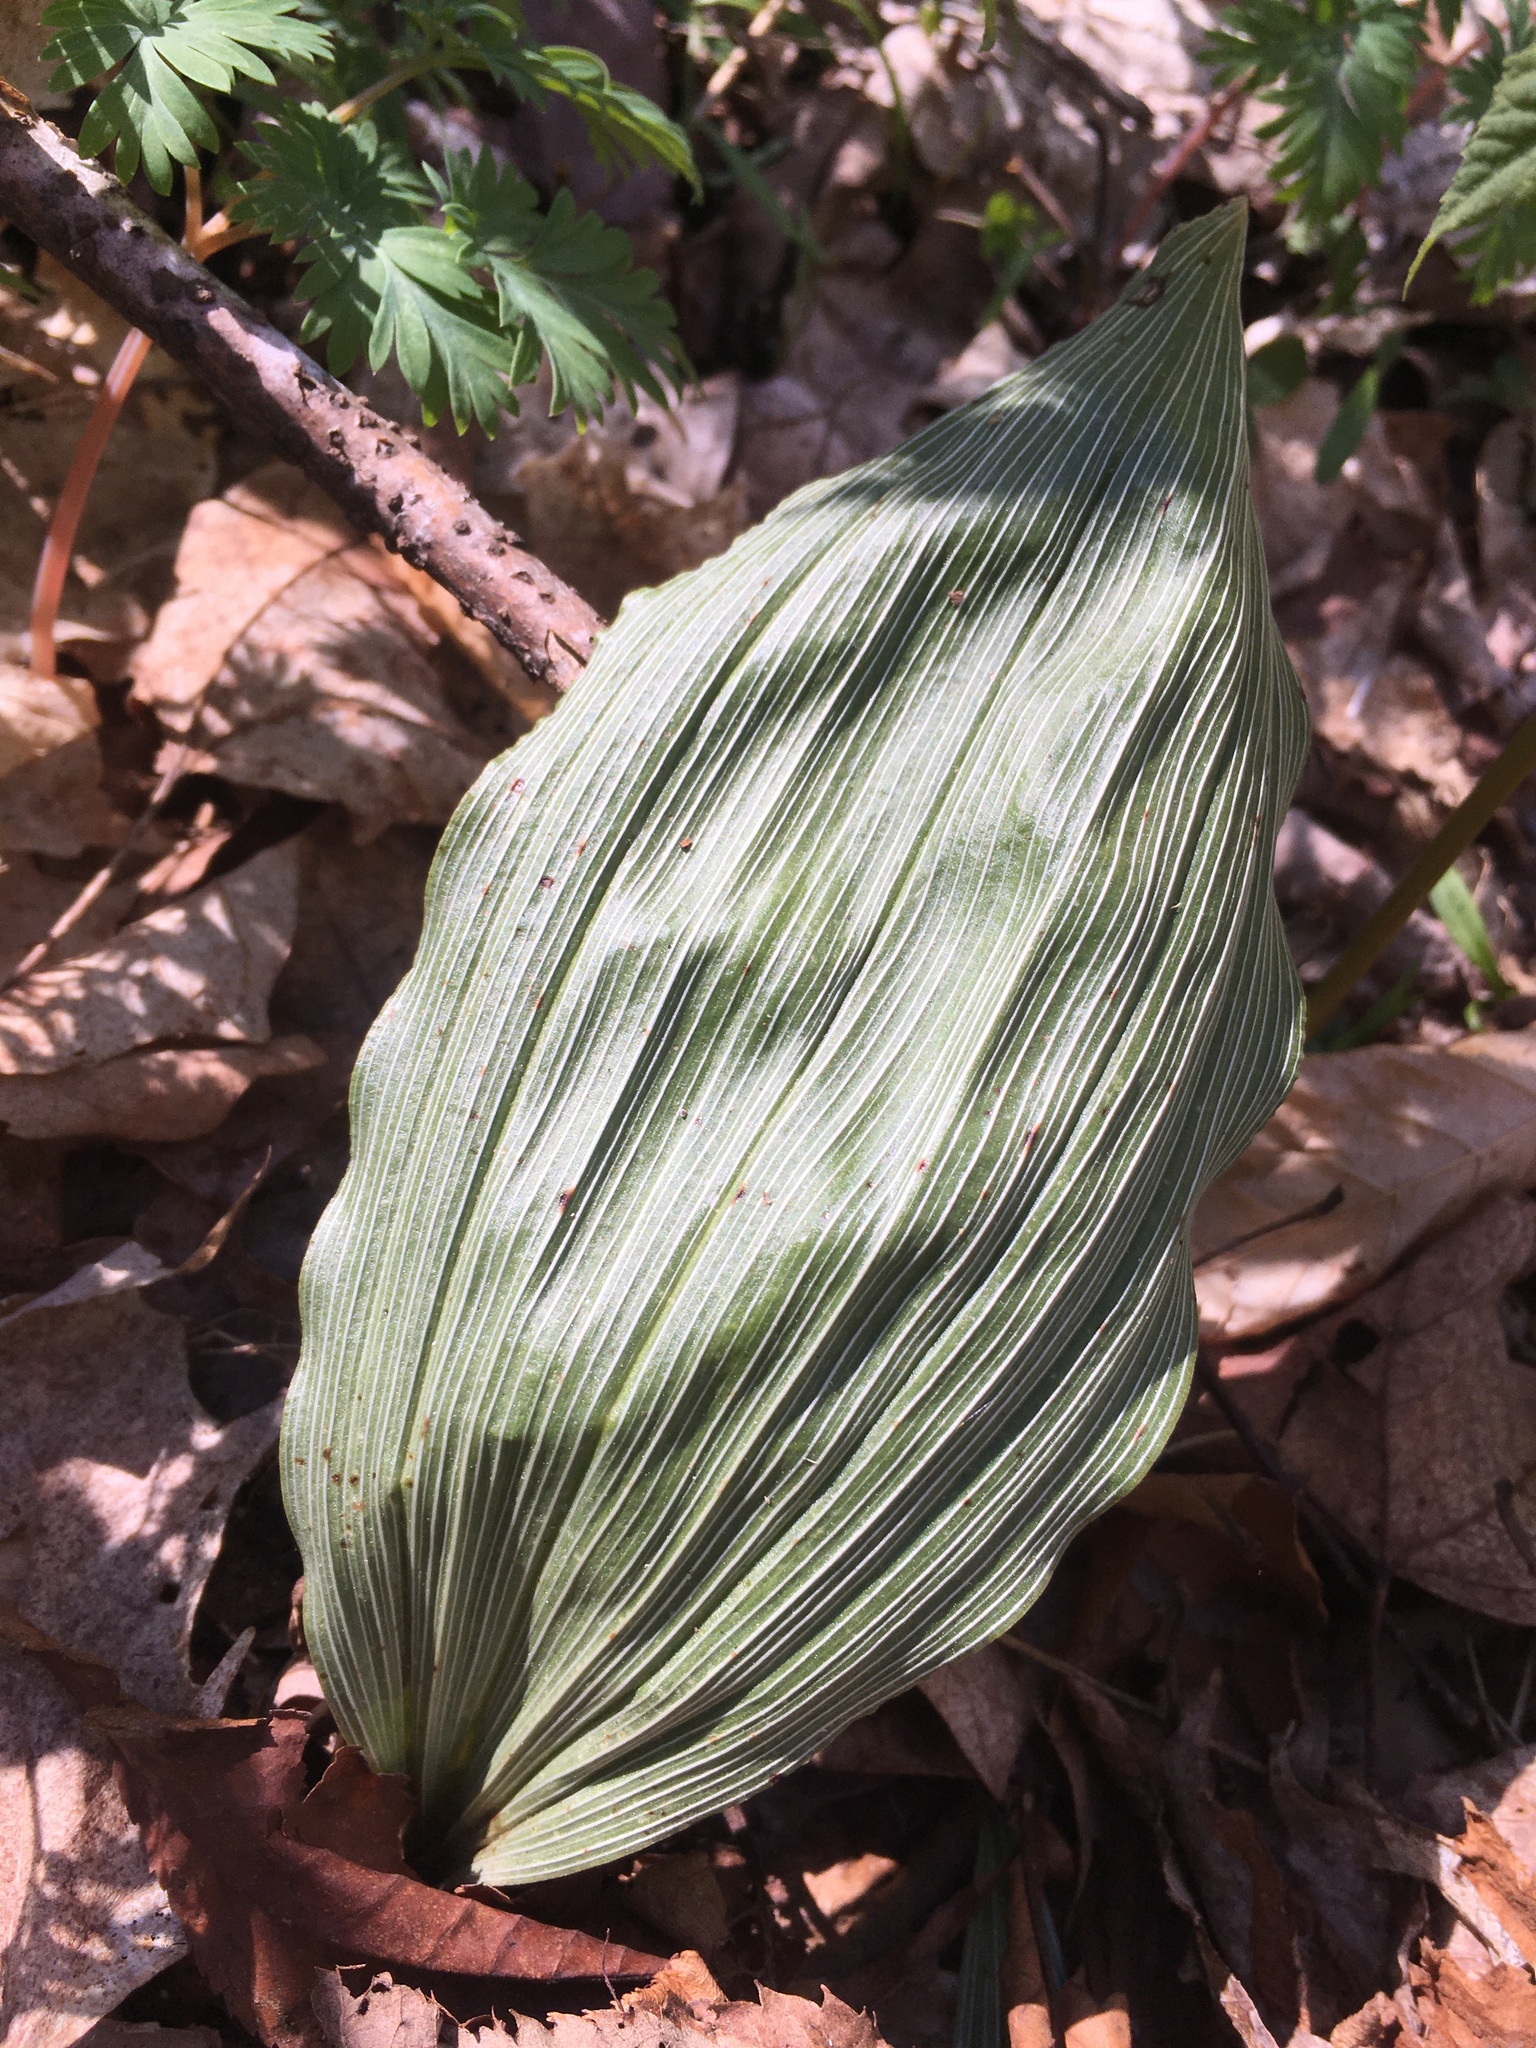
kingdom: Plantae
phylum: Tracheophyta
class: Liliopsida
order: Asparagales
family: Orchidaceae
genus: Aplectrum
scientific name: Aplectrum hyemale
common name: Adam-and-eve
